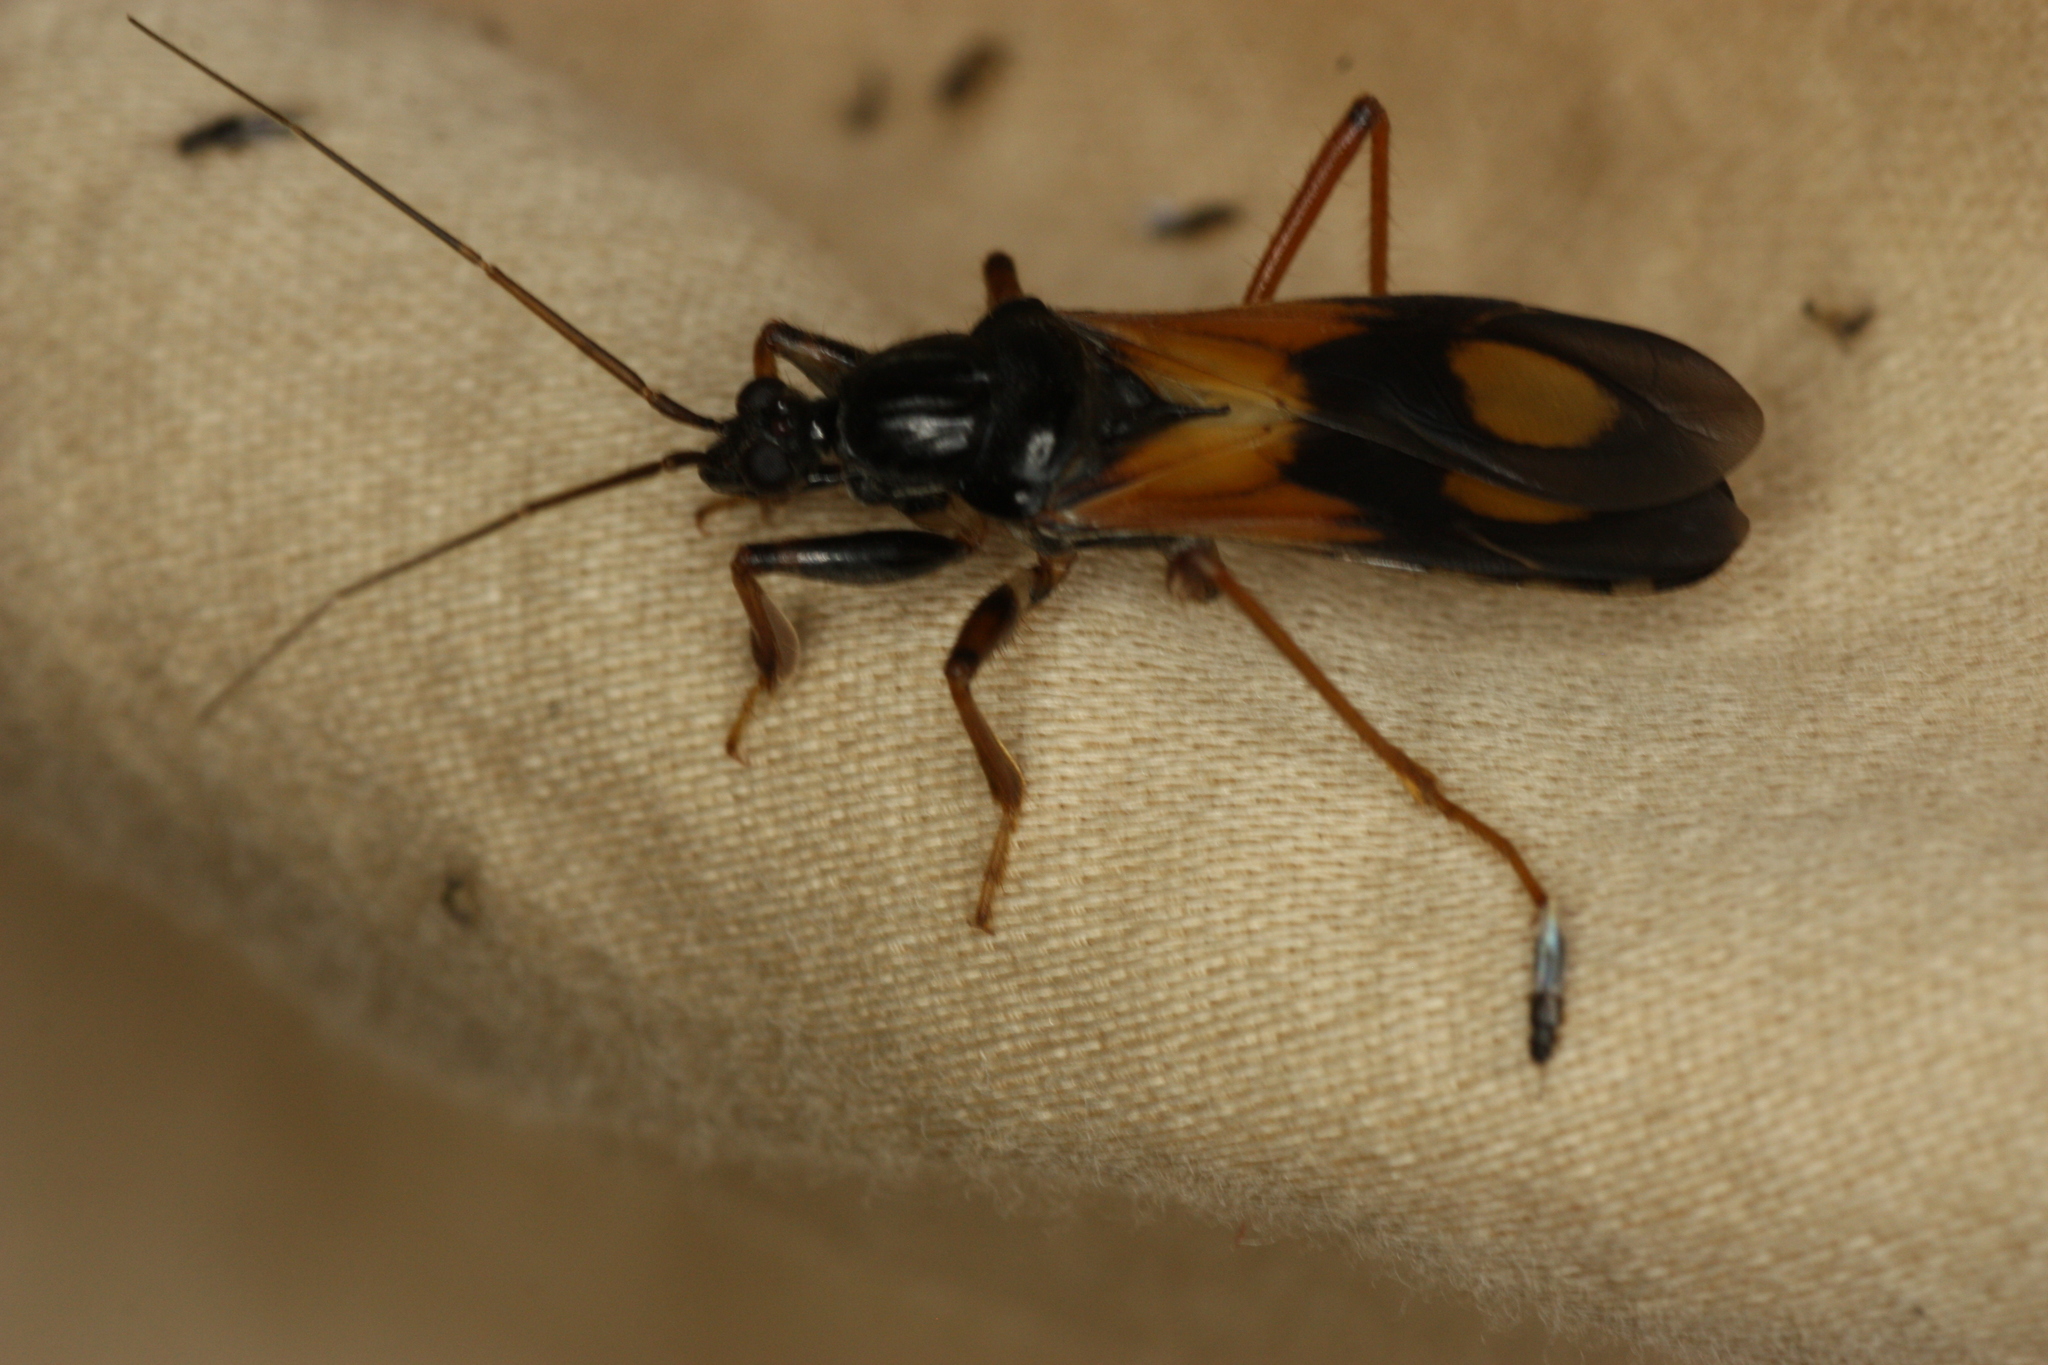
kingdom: Animalia
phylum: Arthropoda
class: Insecta
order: Hemiptera
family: Reduviidae
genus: Rasahus
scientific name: Rasahus biguttatus
